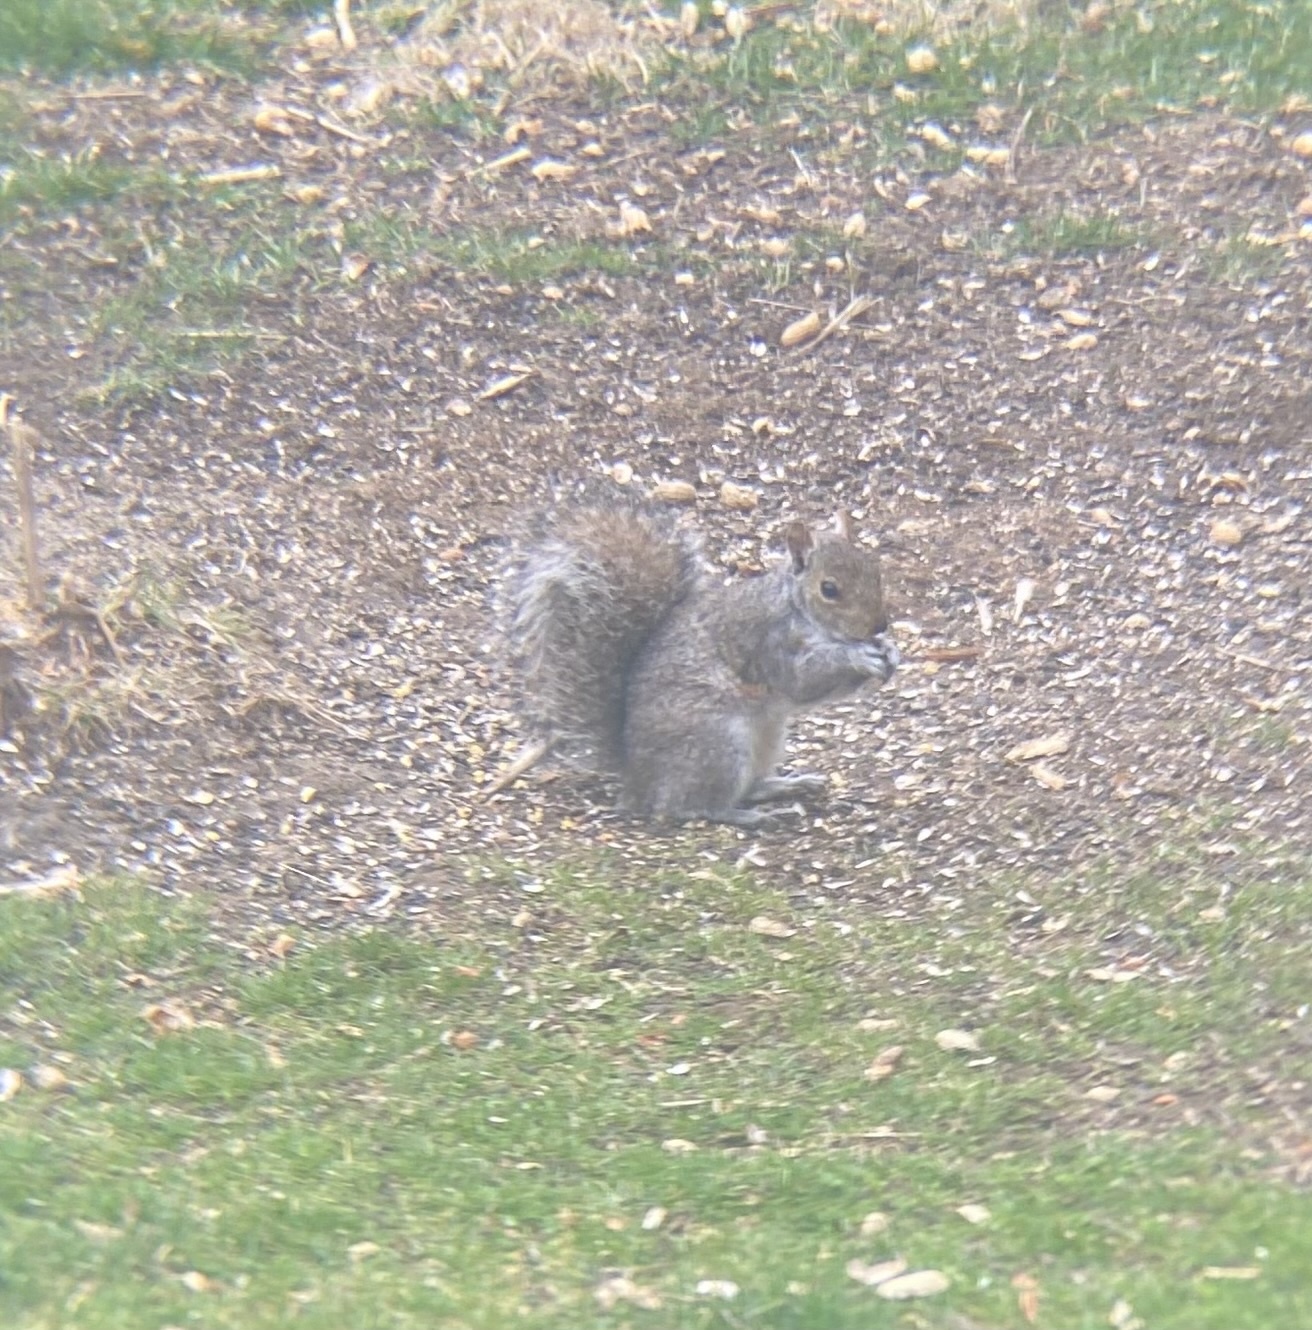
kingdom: Animalia
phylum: Chordata
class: Mammalia
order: Rodentia
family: Sciuridae
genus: Sciurus
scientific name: Sciurus carolinensis
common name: Eastern gray squirrel
